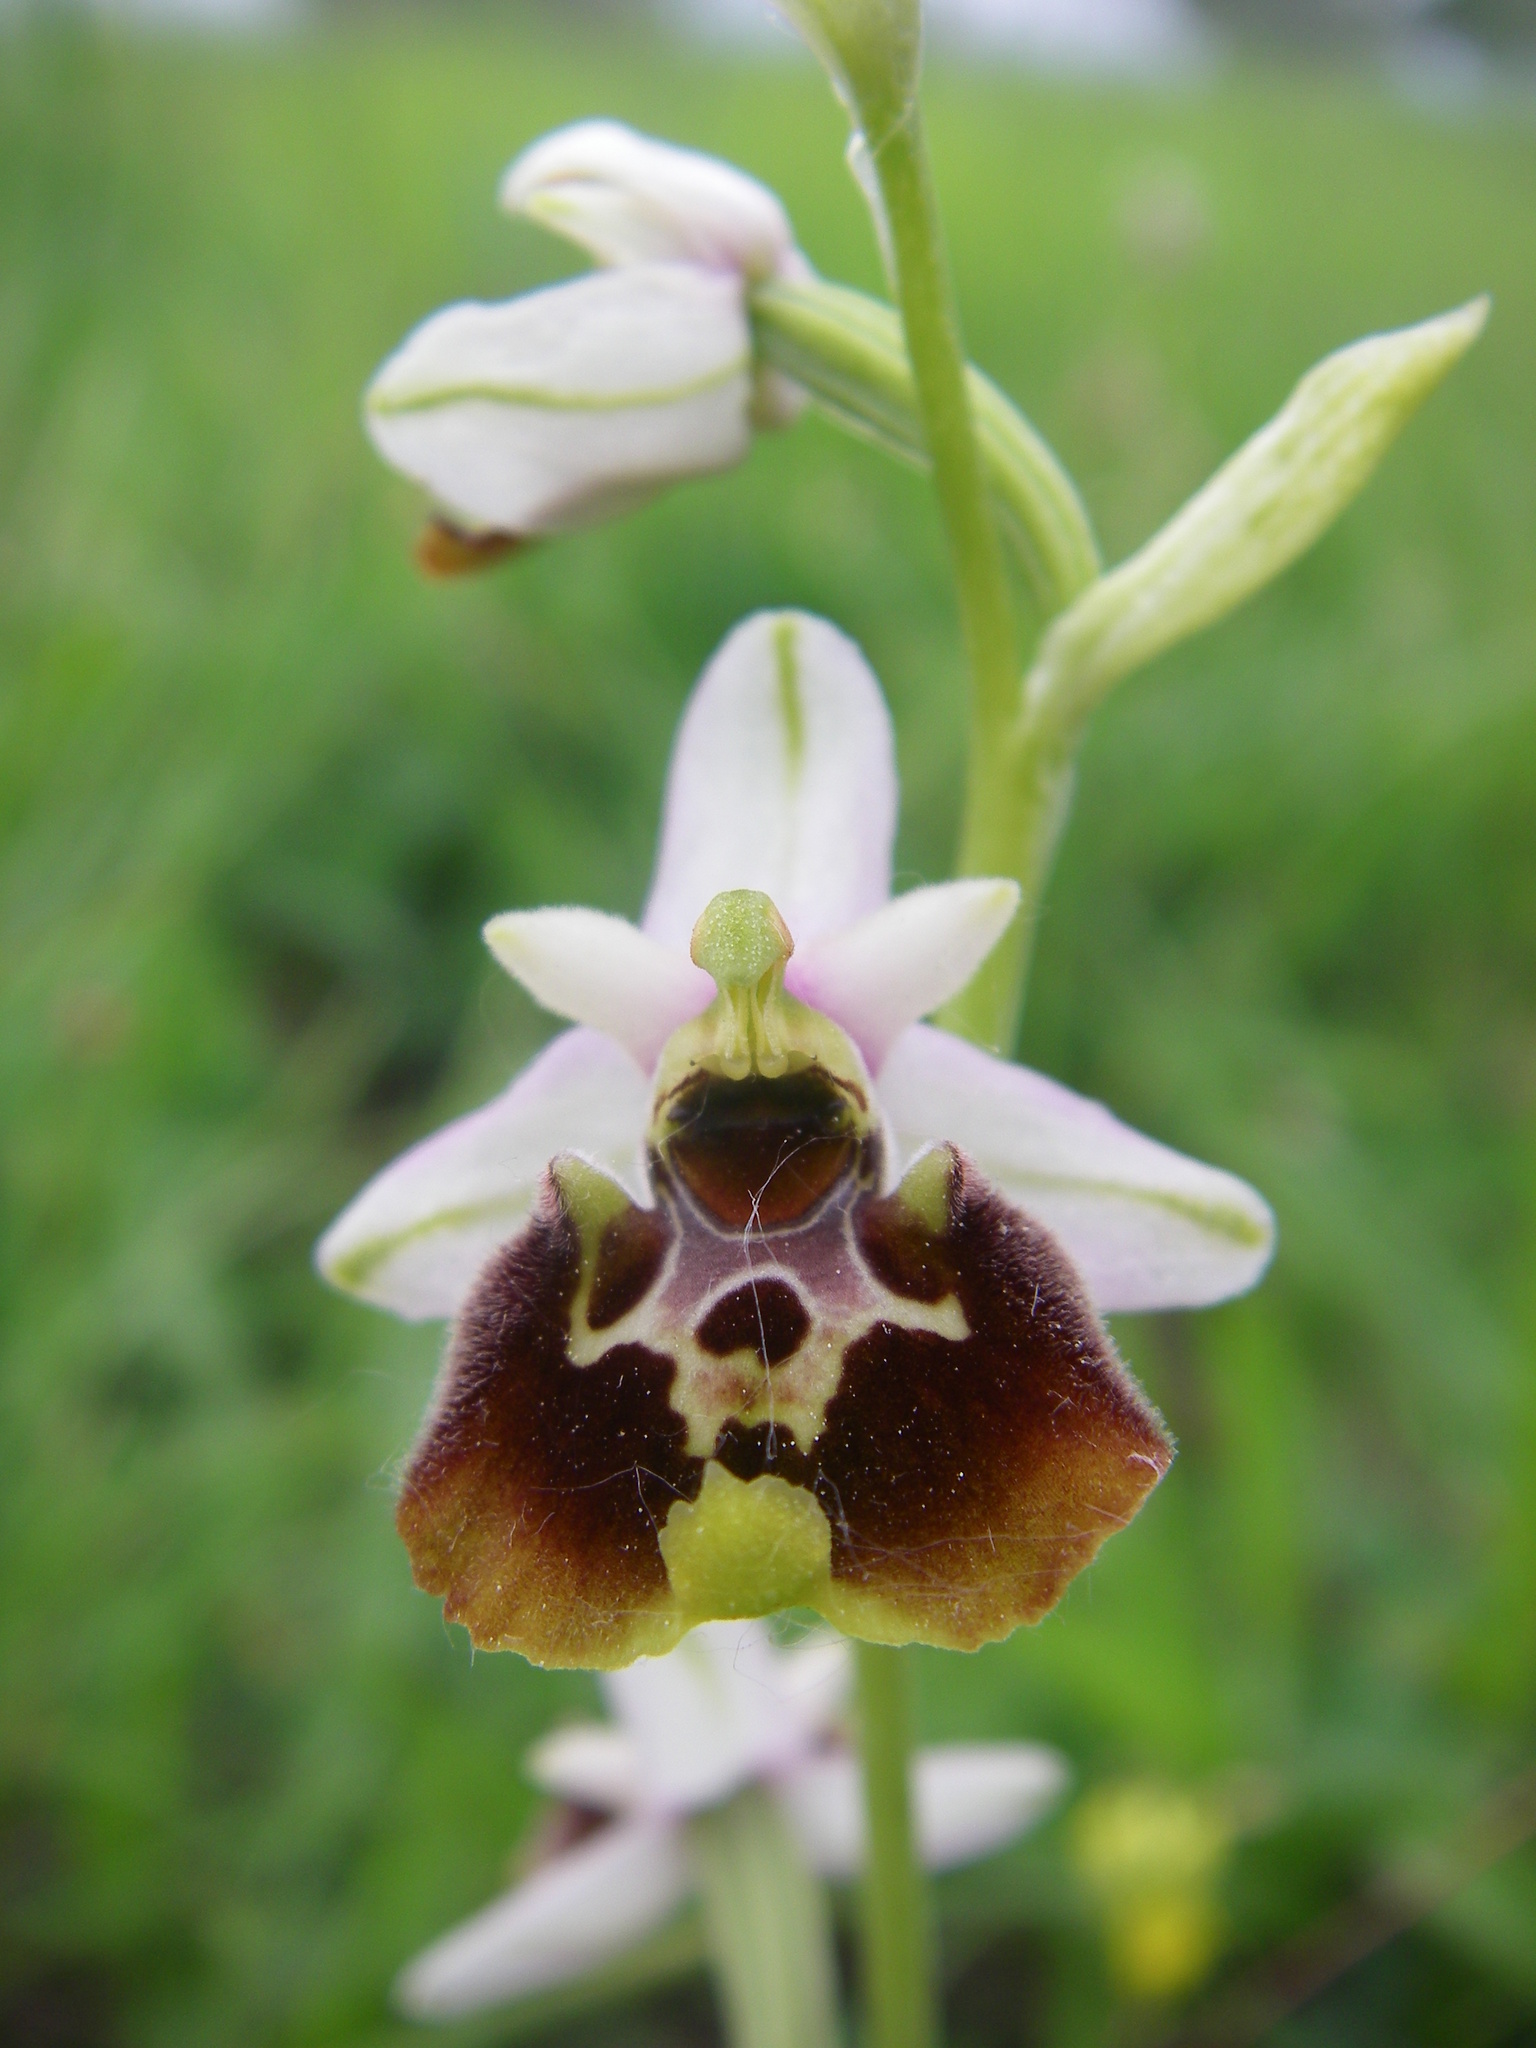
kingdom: Plantae
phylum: Tracheophyta
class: Liliopsida
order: Asparagales
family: Orchidaceae
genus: Ophrys
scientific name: Ophrys holosericea
